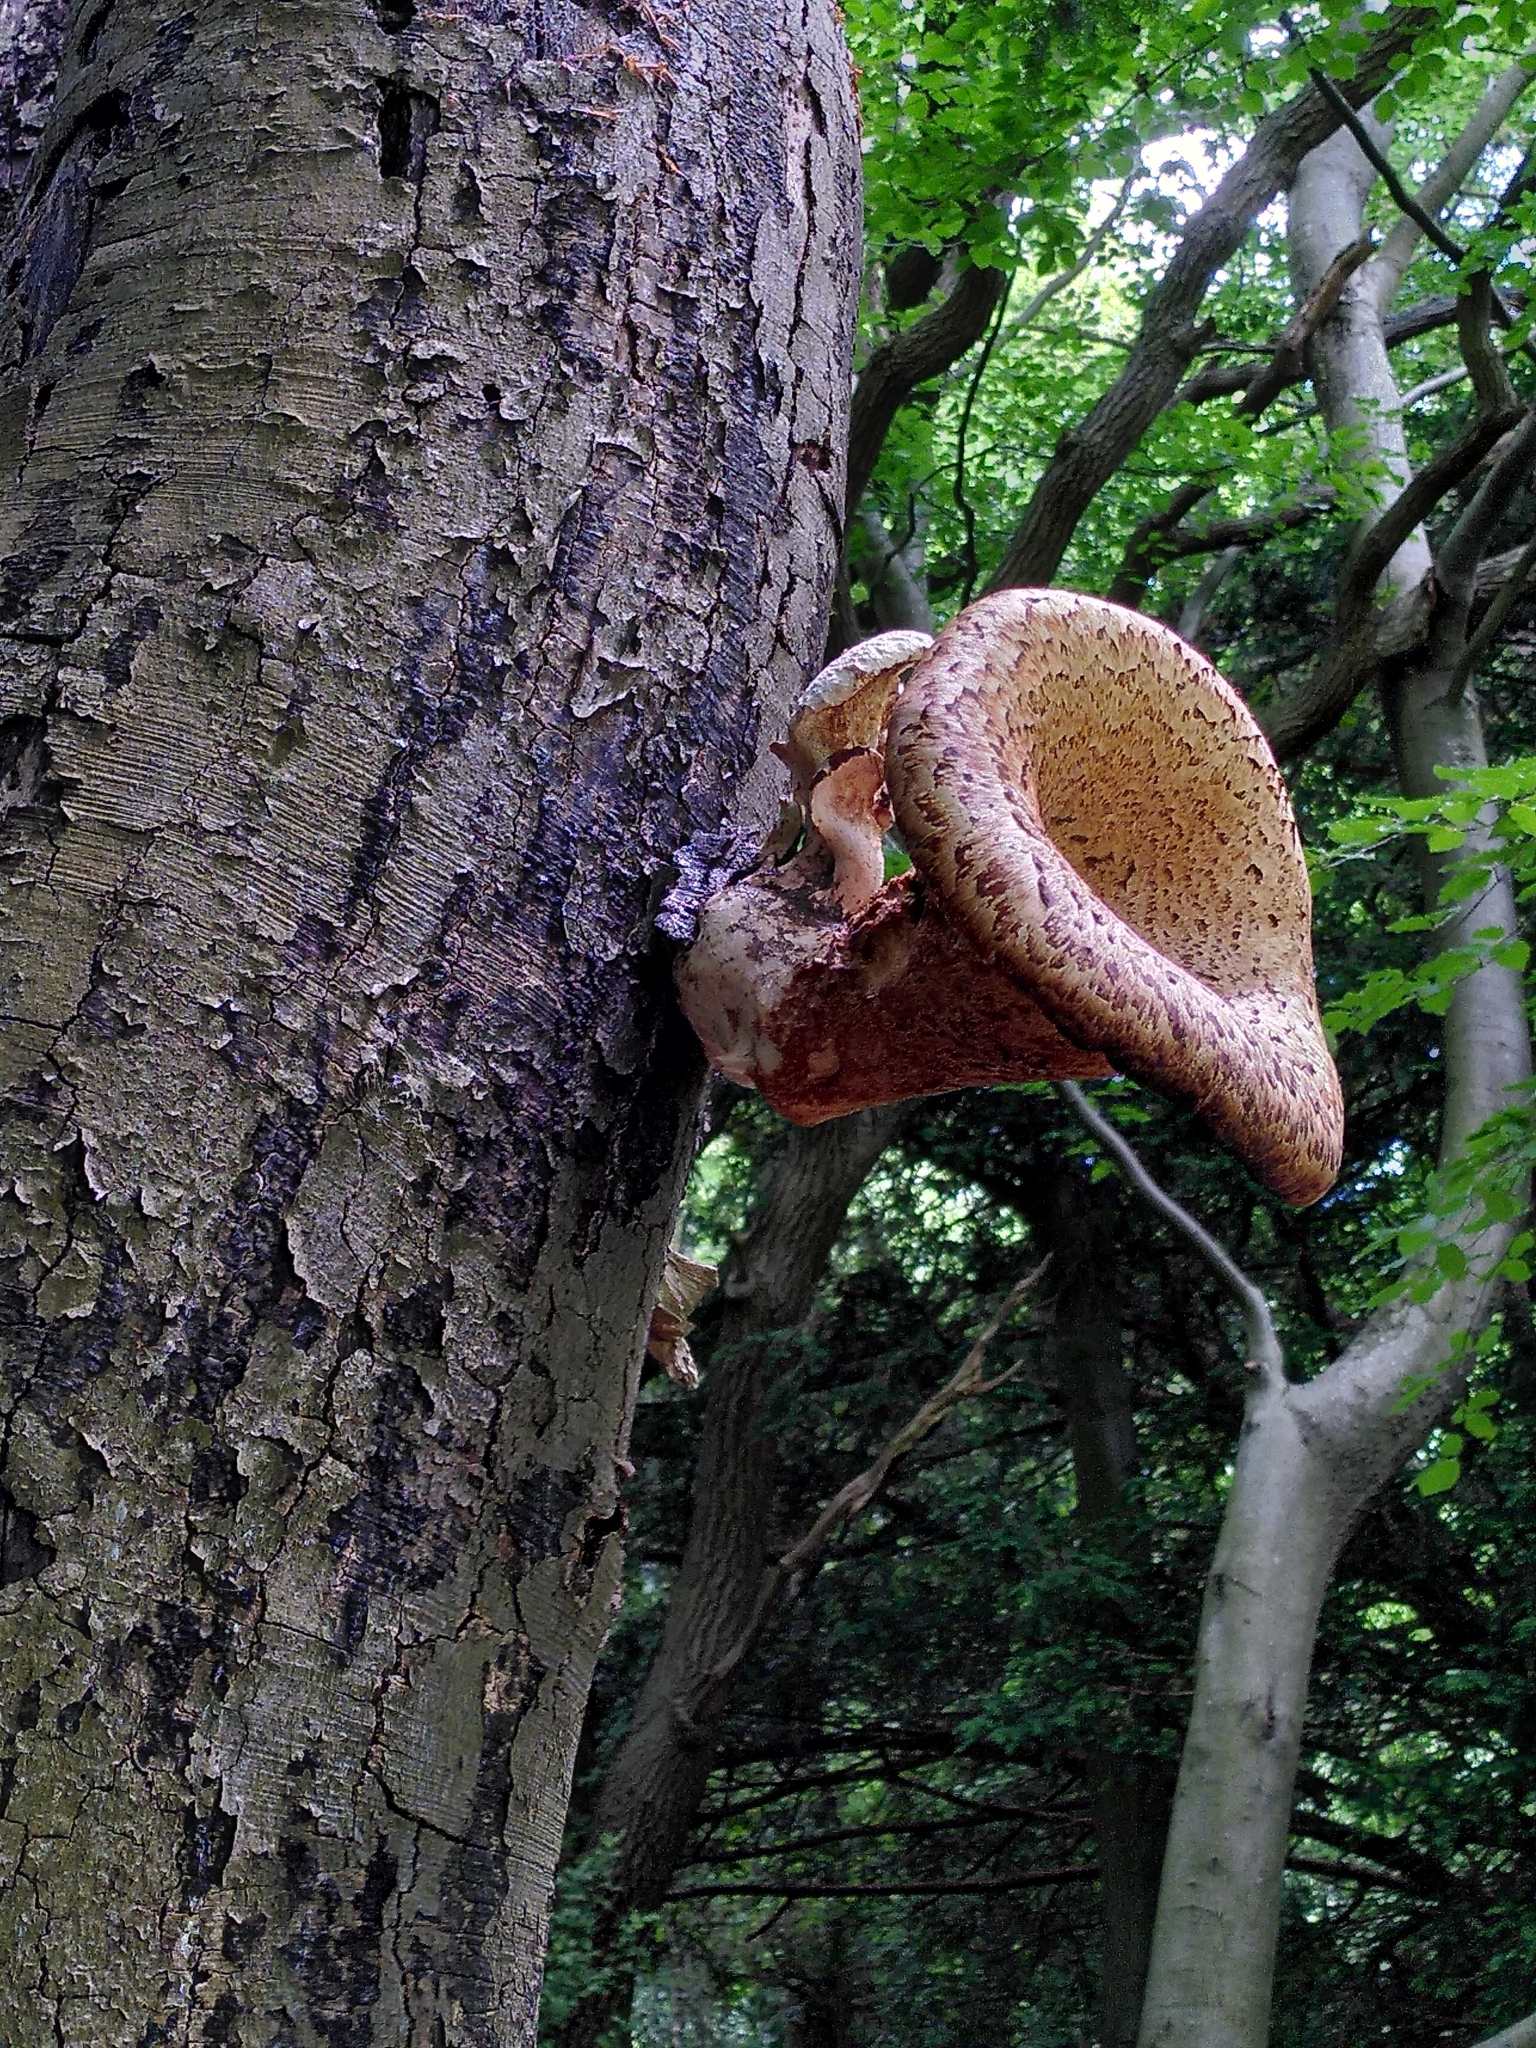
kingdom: Fungi
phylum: Basidiomycota
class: Agaricomycetes
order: Polyporales
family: Polyporaceae
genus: Cerioporus
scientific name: Cerioporus squamosus
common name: Dryad's saddle
